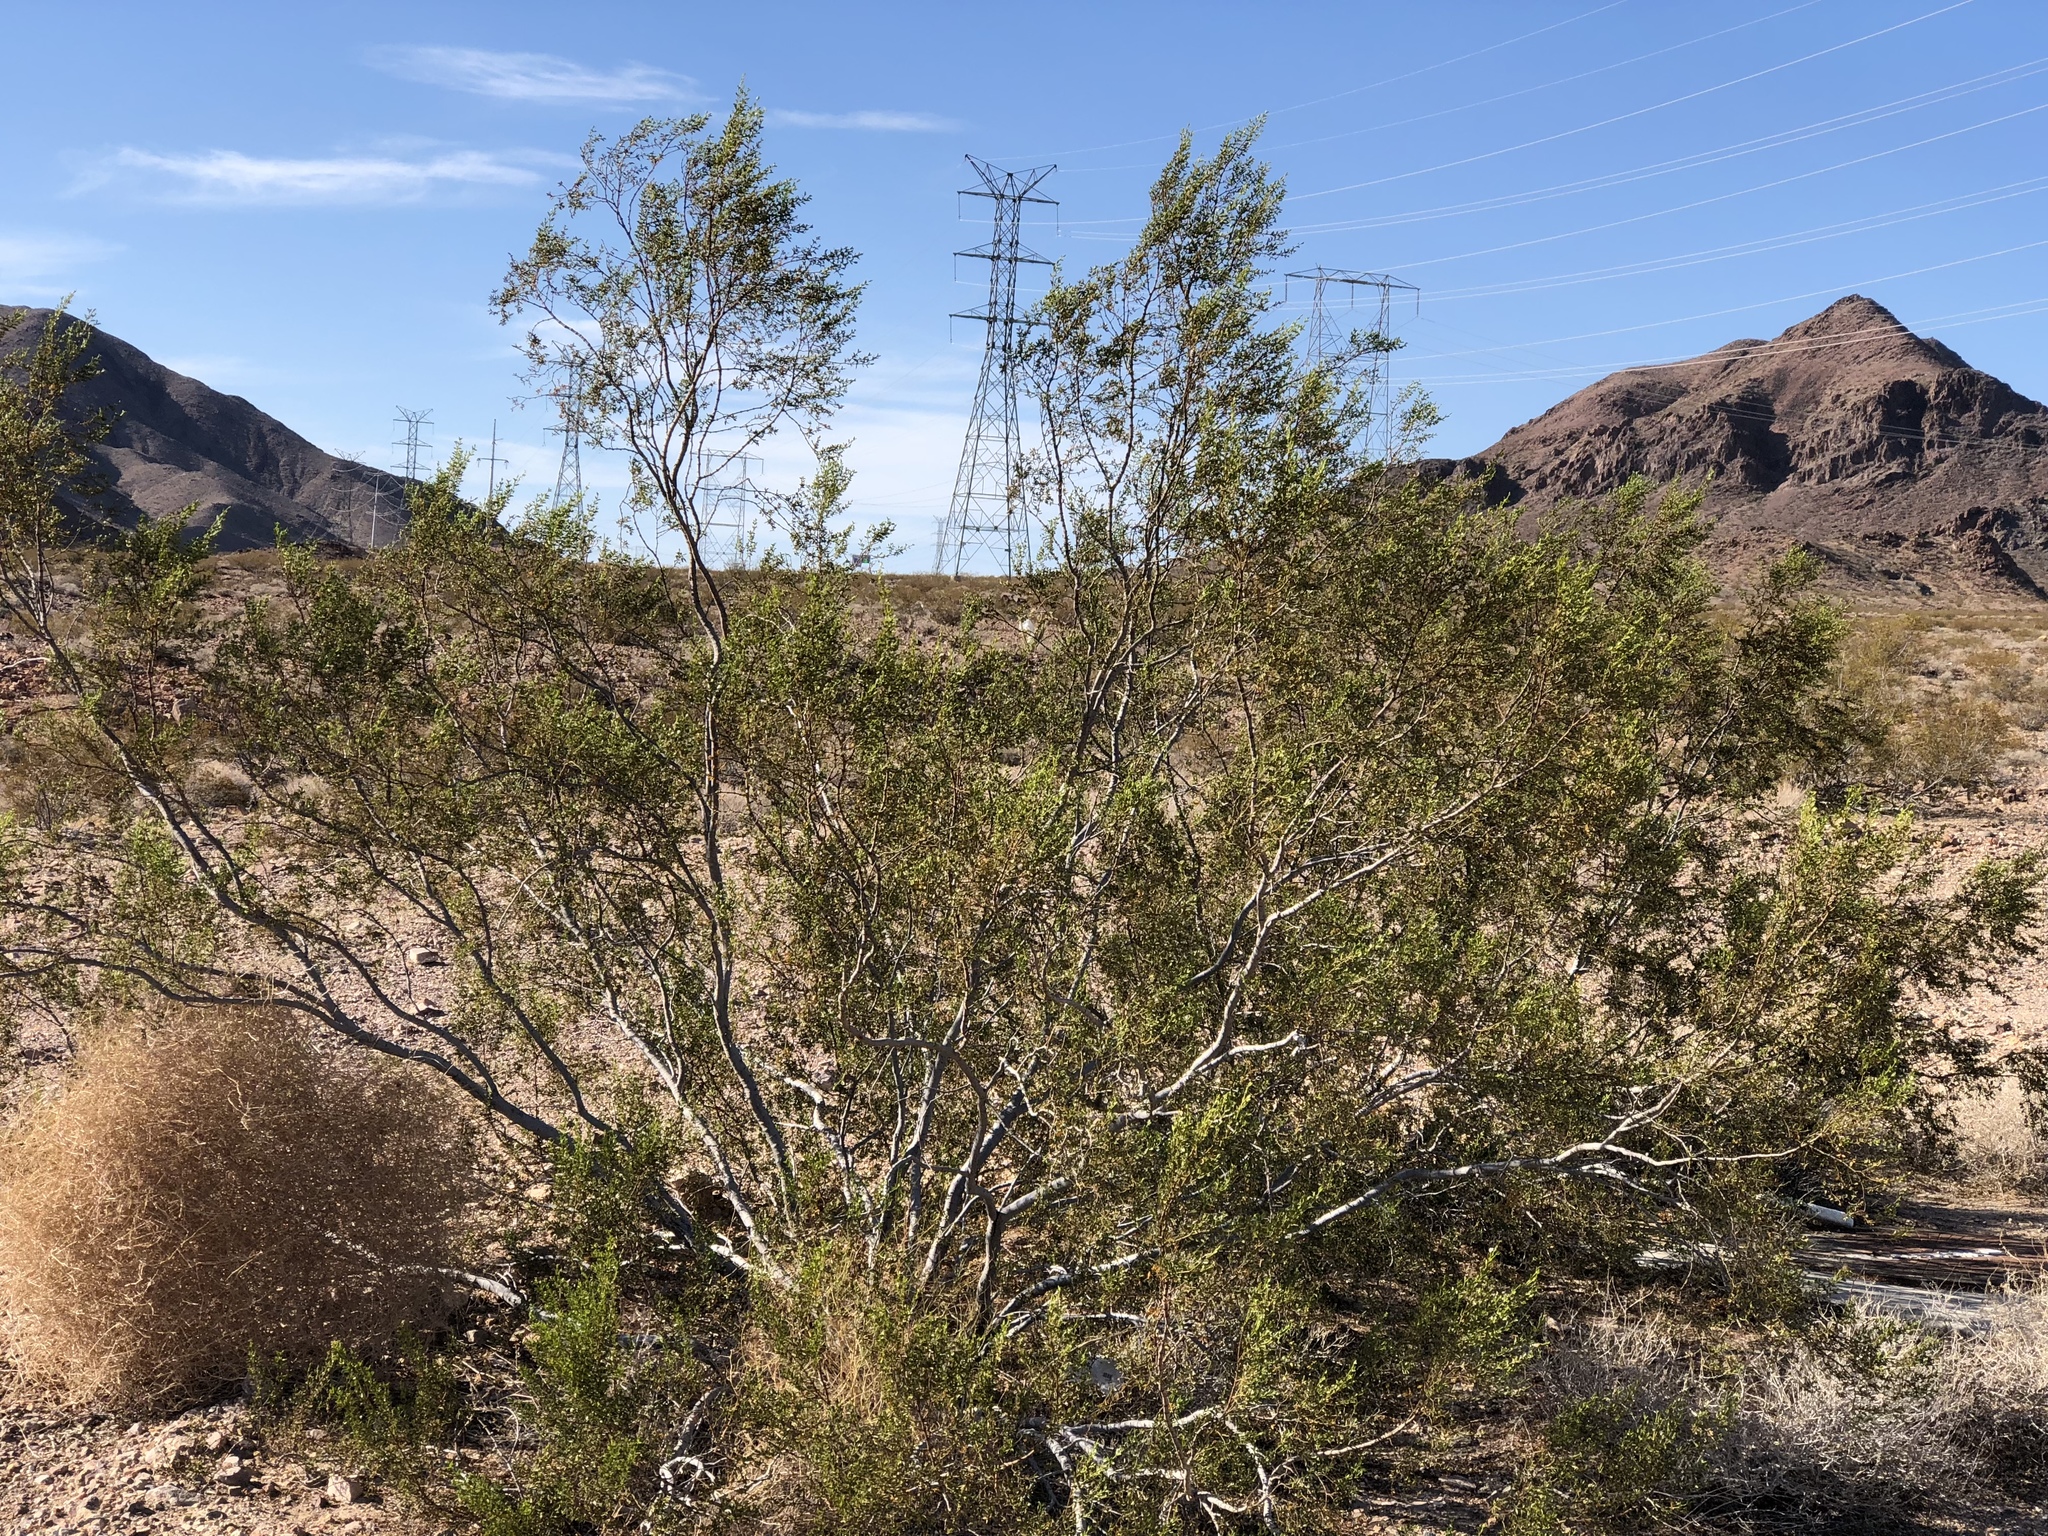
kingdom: Plantae
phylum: Tracheophyta
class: Magnoliopsida
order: Zygophyllales
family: Zygophyllaceae
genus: Larrea
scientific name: Larrea tridentata
